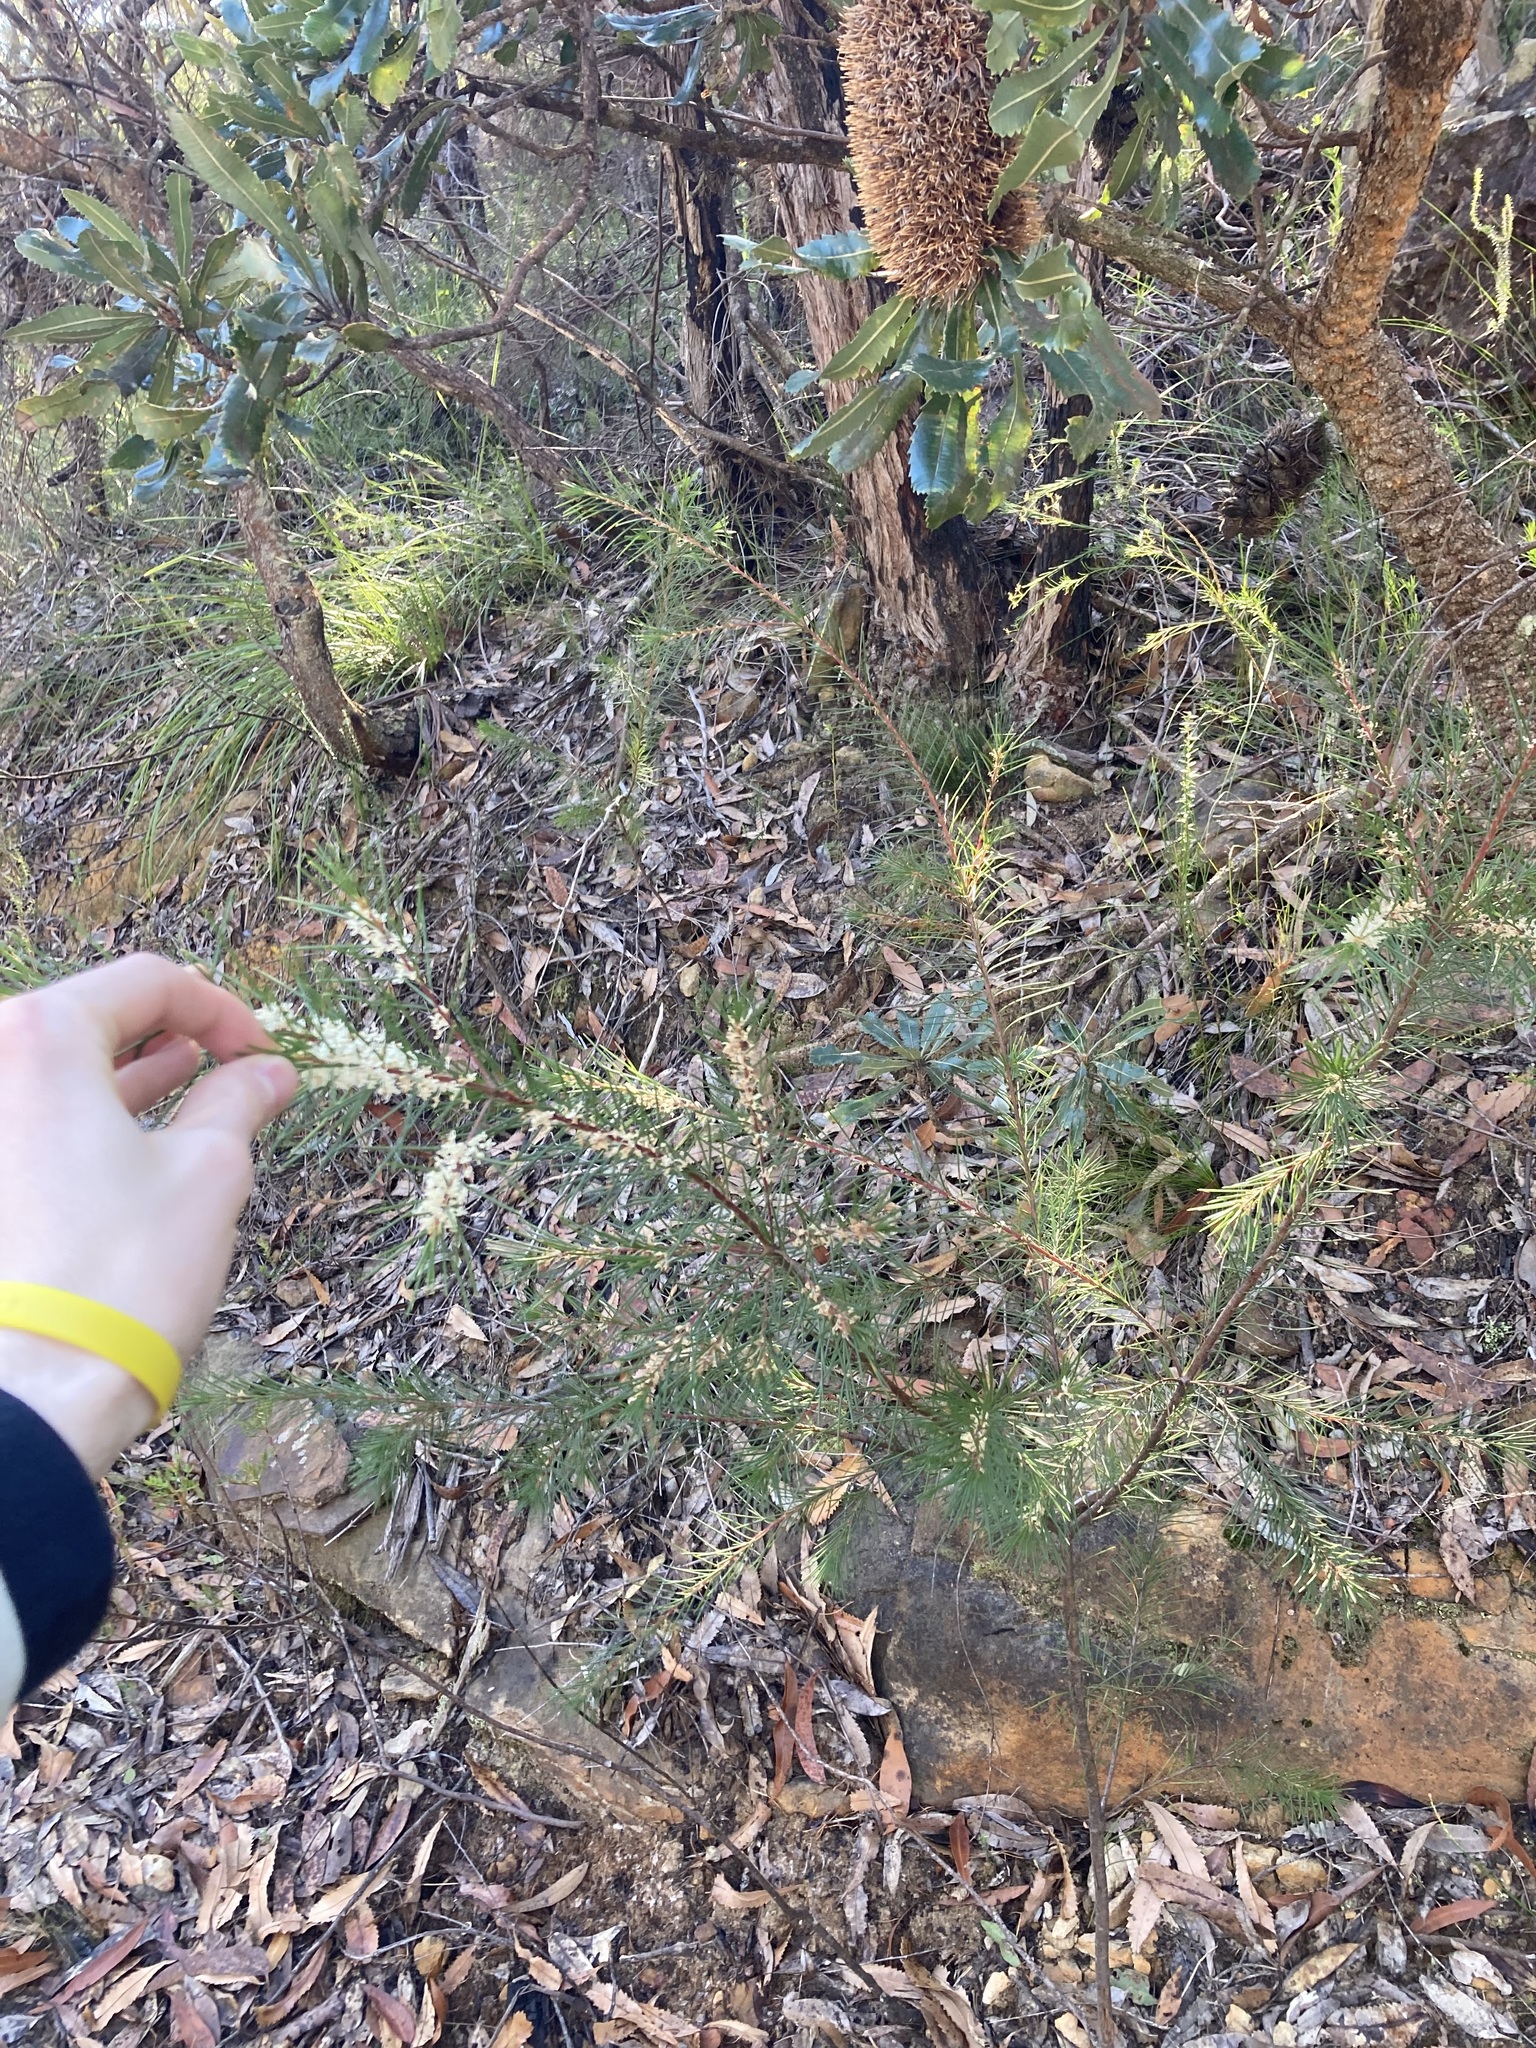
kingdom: Plantae
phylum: Tracheophyta
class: Magnoliopsida
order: Proteales
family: Proteaceae
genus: Hakea
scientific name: Hakea propinqua
